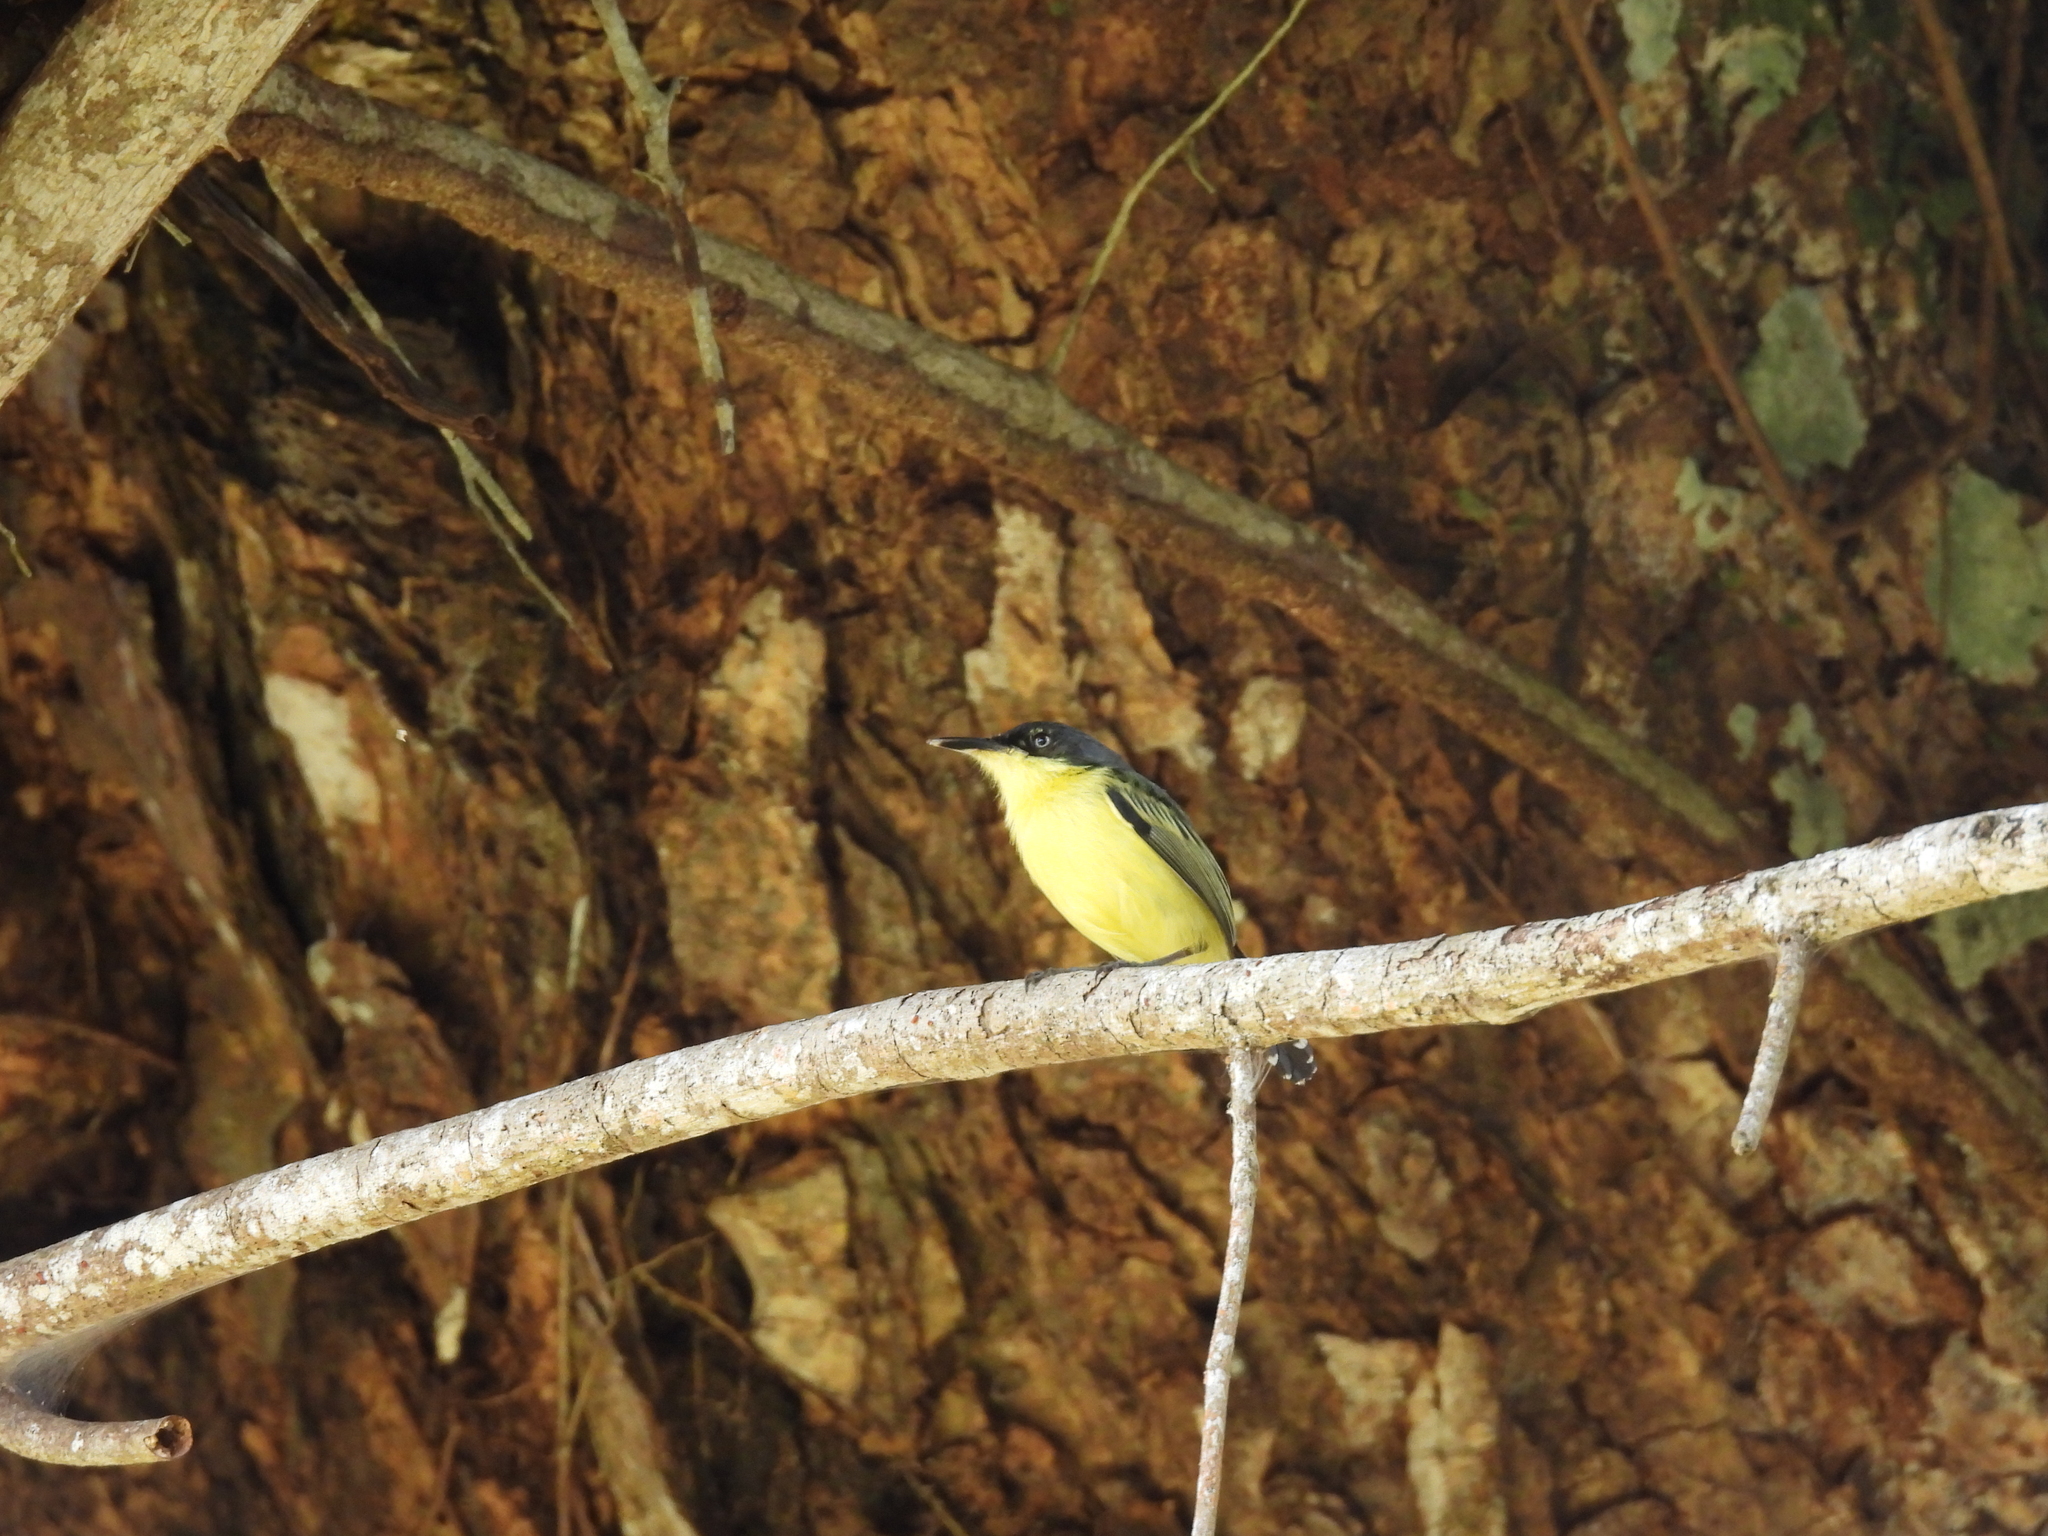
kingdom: Animalia
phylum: Chordata
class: Aves
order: Passeriformes
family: Tyrannidae
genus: Todirostrum
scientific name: Todirostrum cinereum
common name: Common tody-flycatcher
